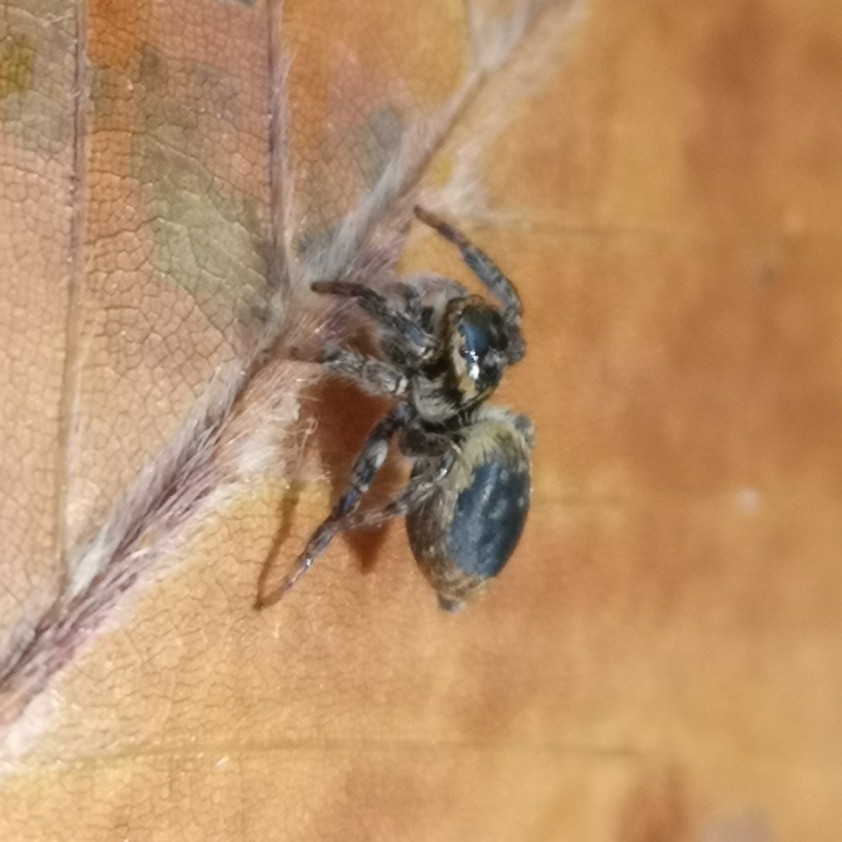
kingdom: Animalia
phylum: Arthropoda
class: Arachnida
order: Araneae
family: Salticidae
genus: Carrhotus
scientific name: Carrhotus xanthogramma
